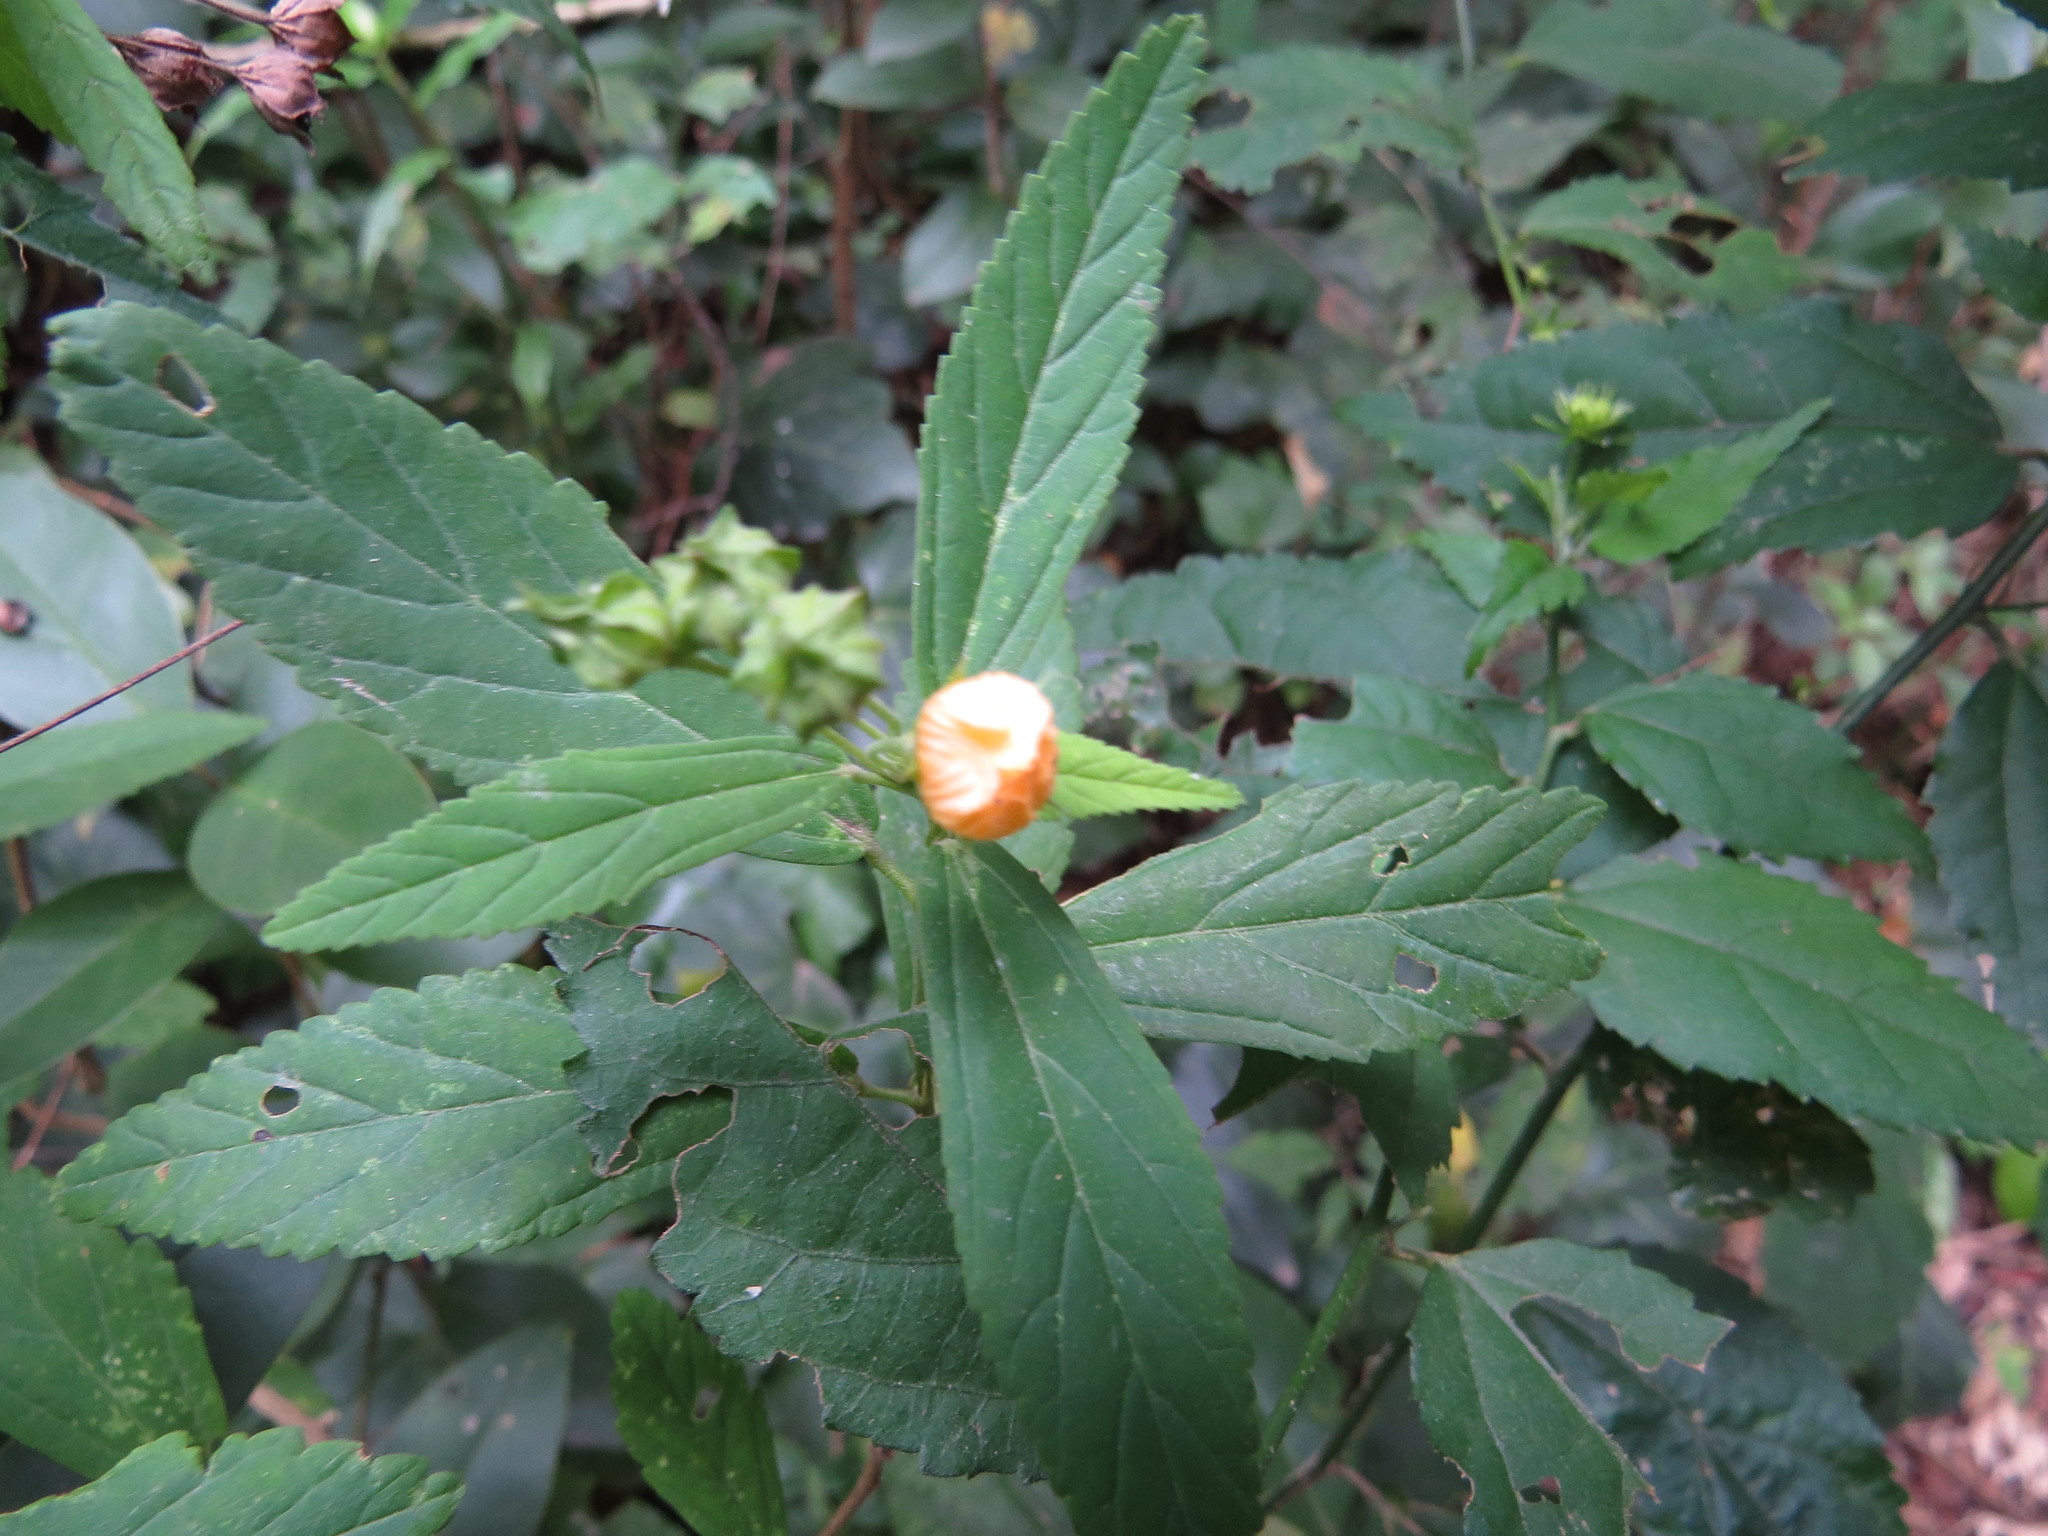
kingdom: Plantae
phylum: Tracheophyta
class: Magnoliopsida
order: Malvales
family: Malvaceae
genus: Sida
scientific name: Sida rhombifolia
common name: Queensland-hemp
